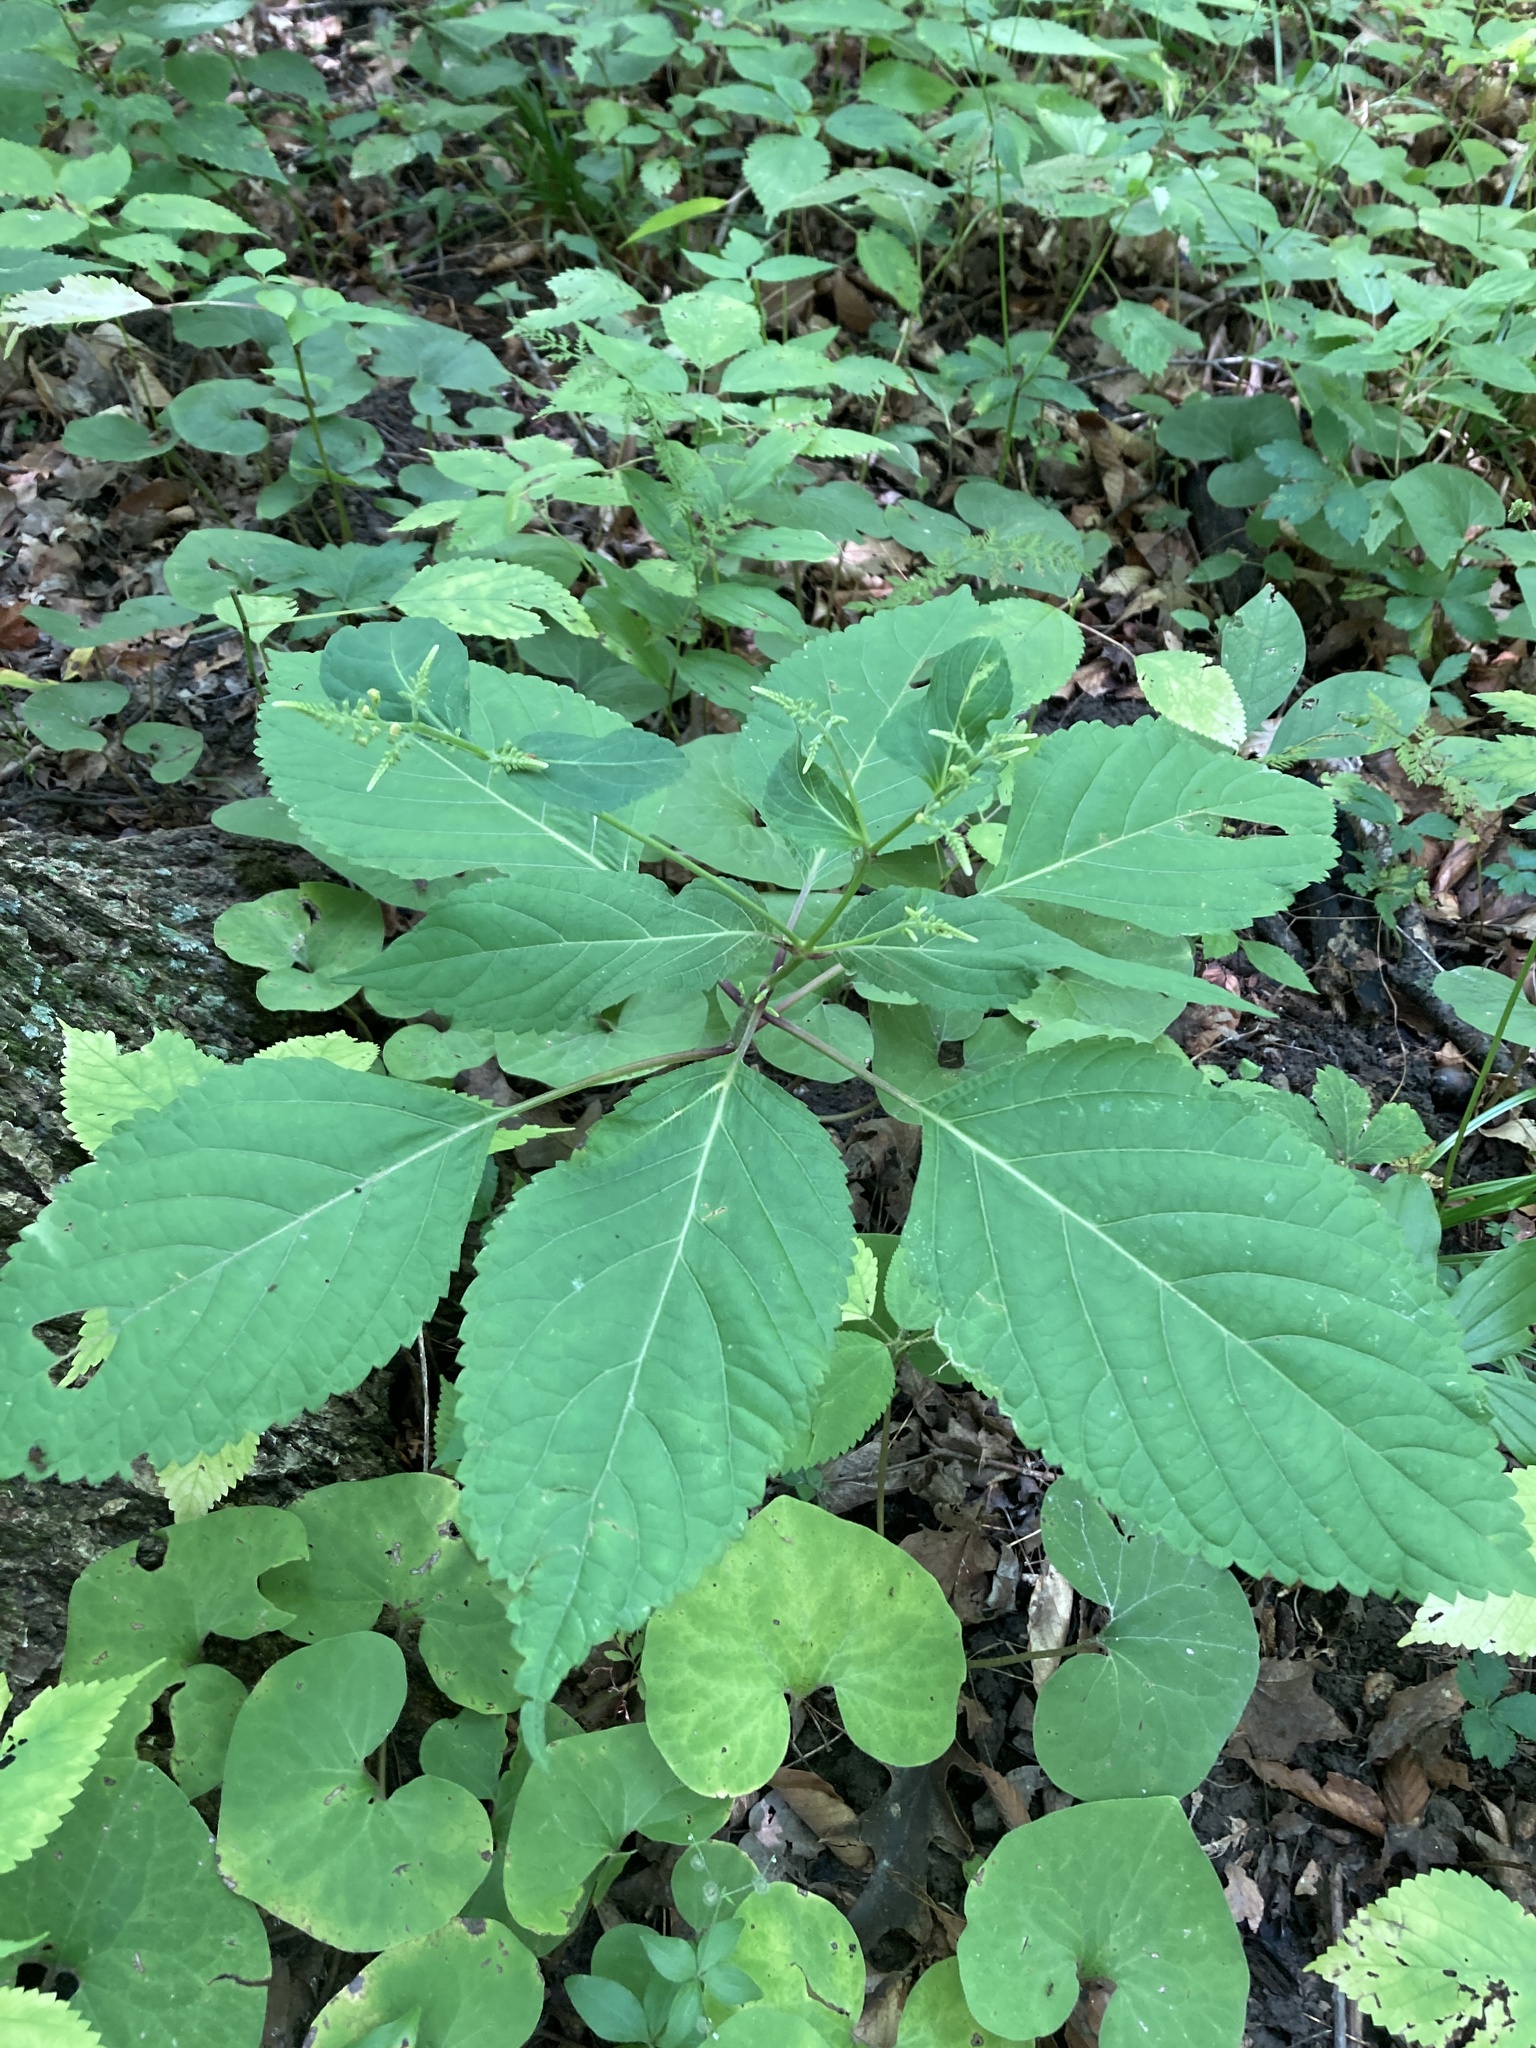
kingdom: Plantae
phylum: Tracheophyta
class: Magnoliopsida
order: Lamiales
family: Lamiaceae
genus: Collinsonia
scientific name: Collinsonia canadensis
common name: Northern horsebalm
